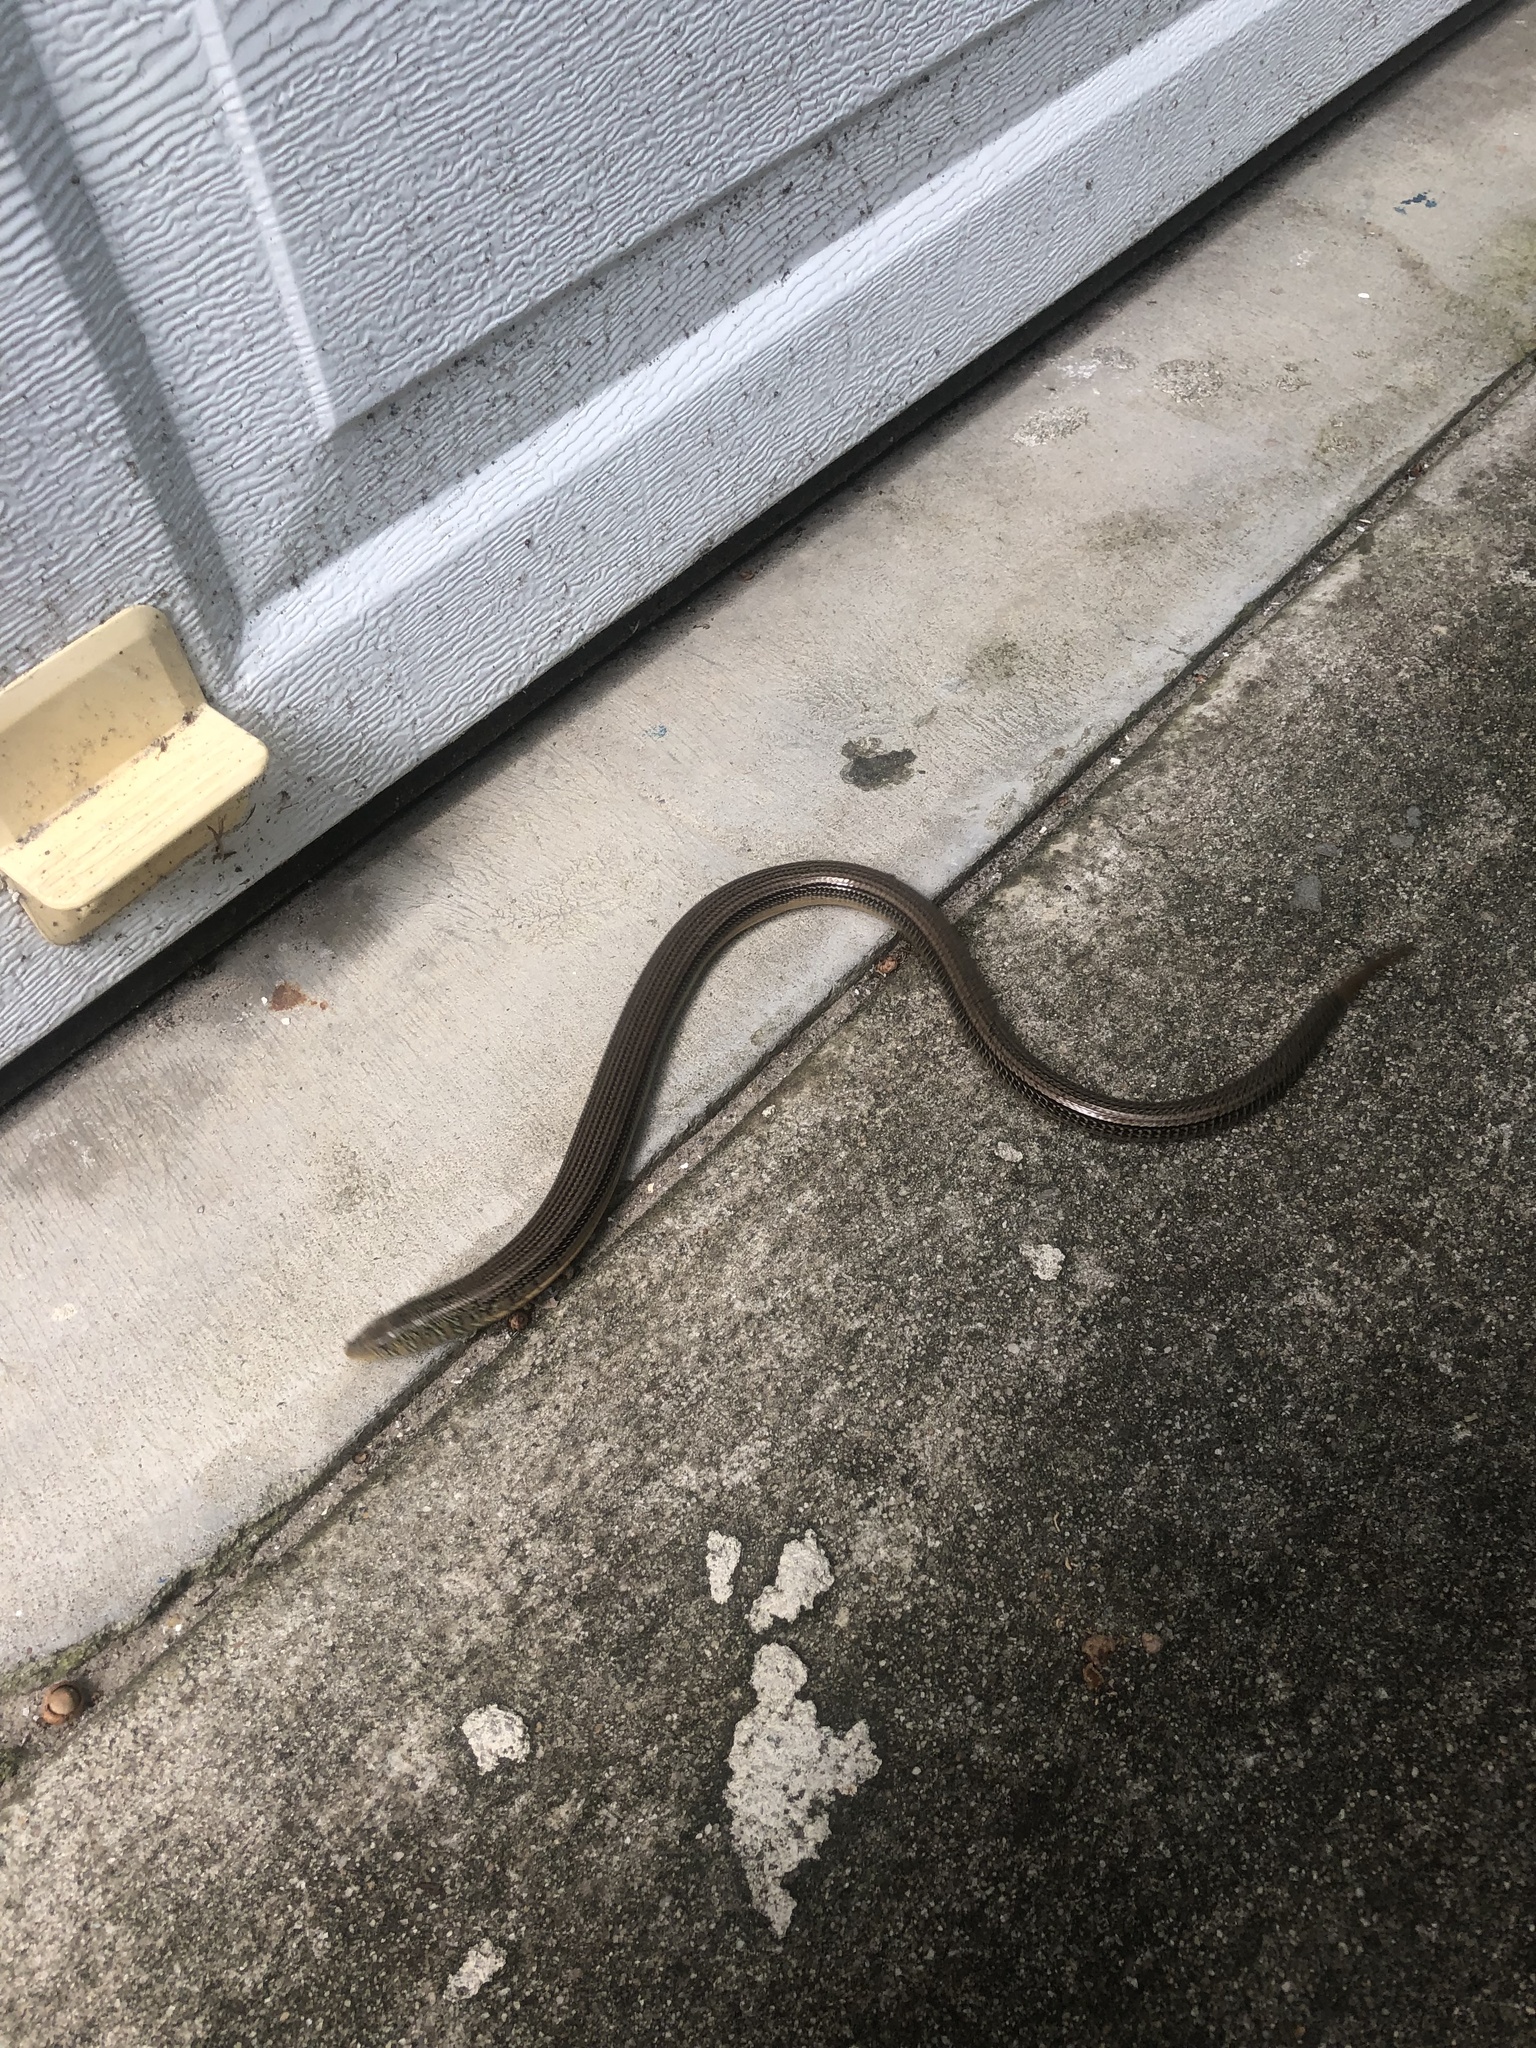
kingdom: Animalia
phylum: Chordata
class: Squamata
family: Anguidae
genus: Ophisaurus
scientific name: Ophisaurus ventralis
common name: Eastern glass lizard
